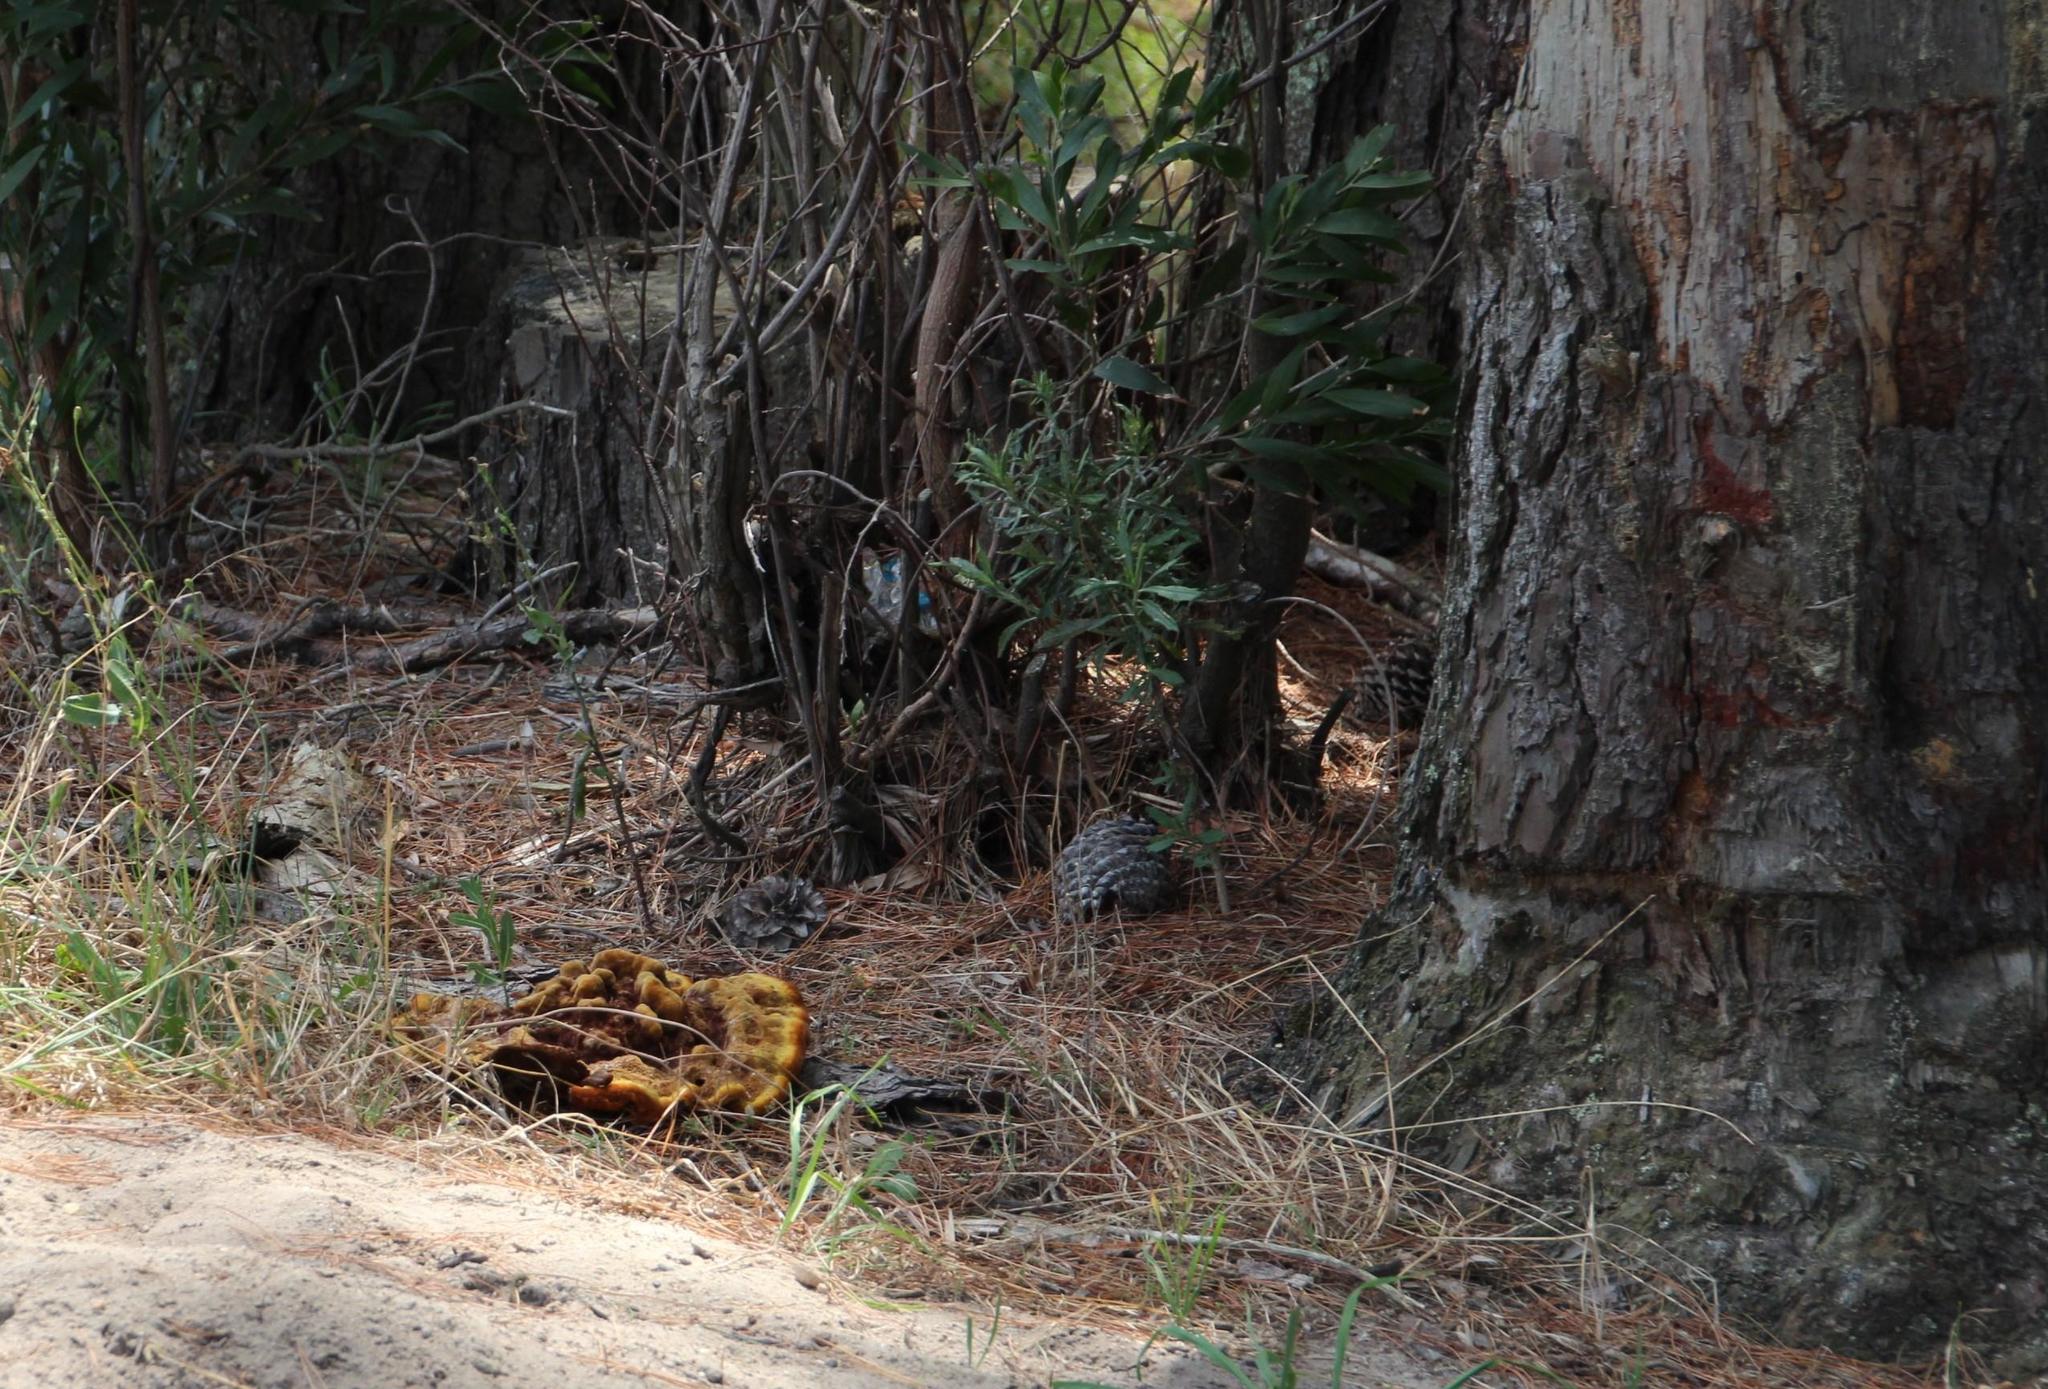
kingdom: Fungi
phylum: Basidiomycota
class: Agaricomycetes
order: Polyporales
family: Laetiporaceae
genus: Phaeolus
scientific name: Phaeolus schweinitzii
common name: Dyer's mazegill
